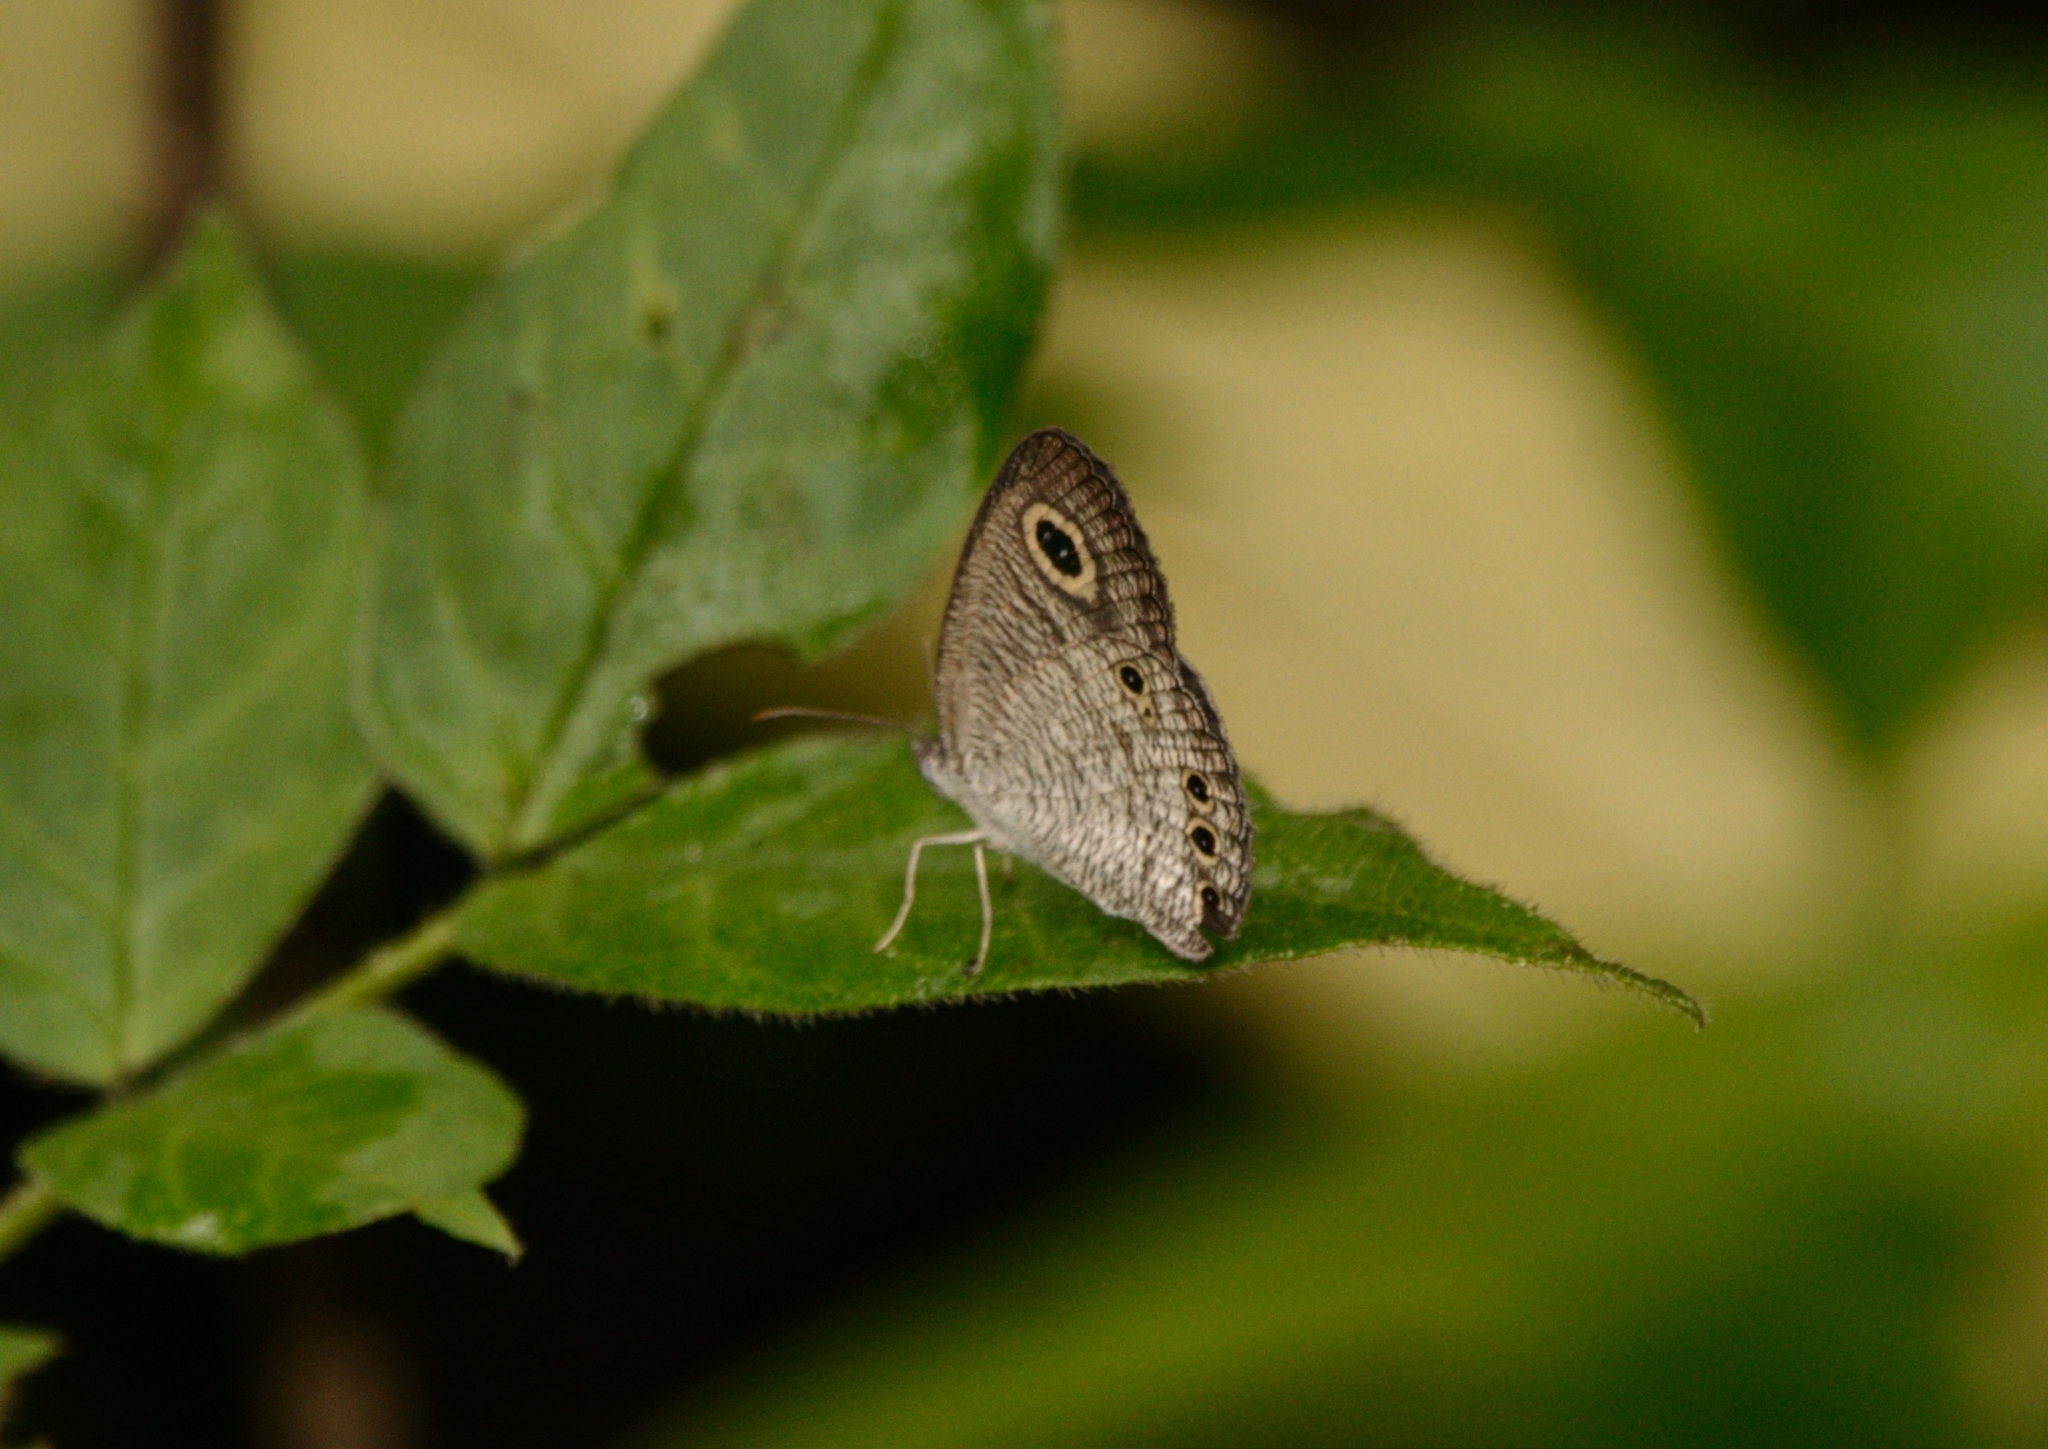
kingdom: Animalia
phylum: Arthropoda
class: Insecta
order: Lepidoptera
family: Nymphalidae
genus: Ypthima
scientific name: Ypthima huebneri
